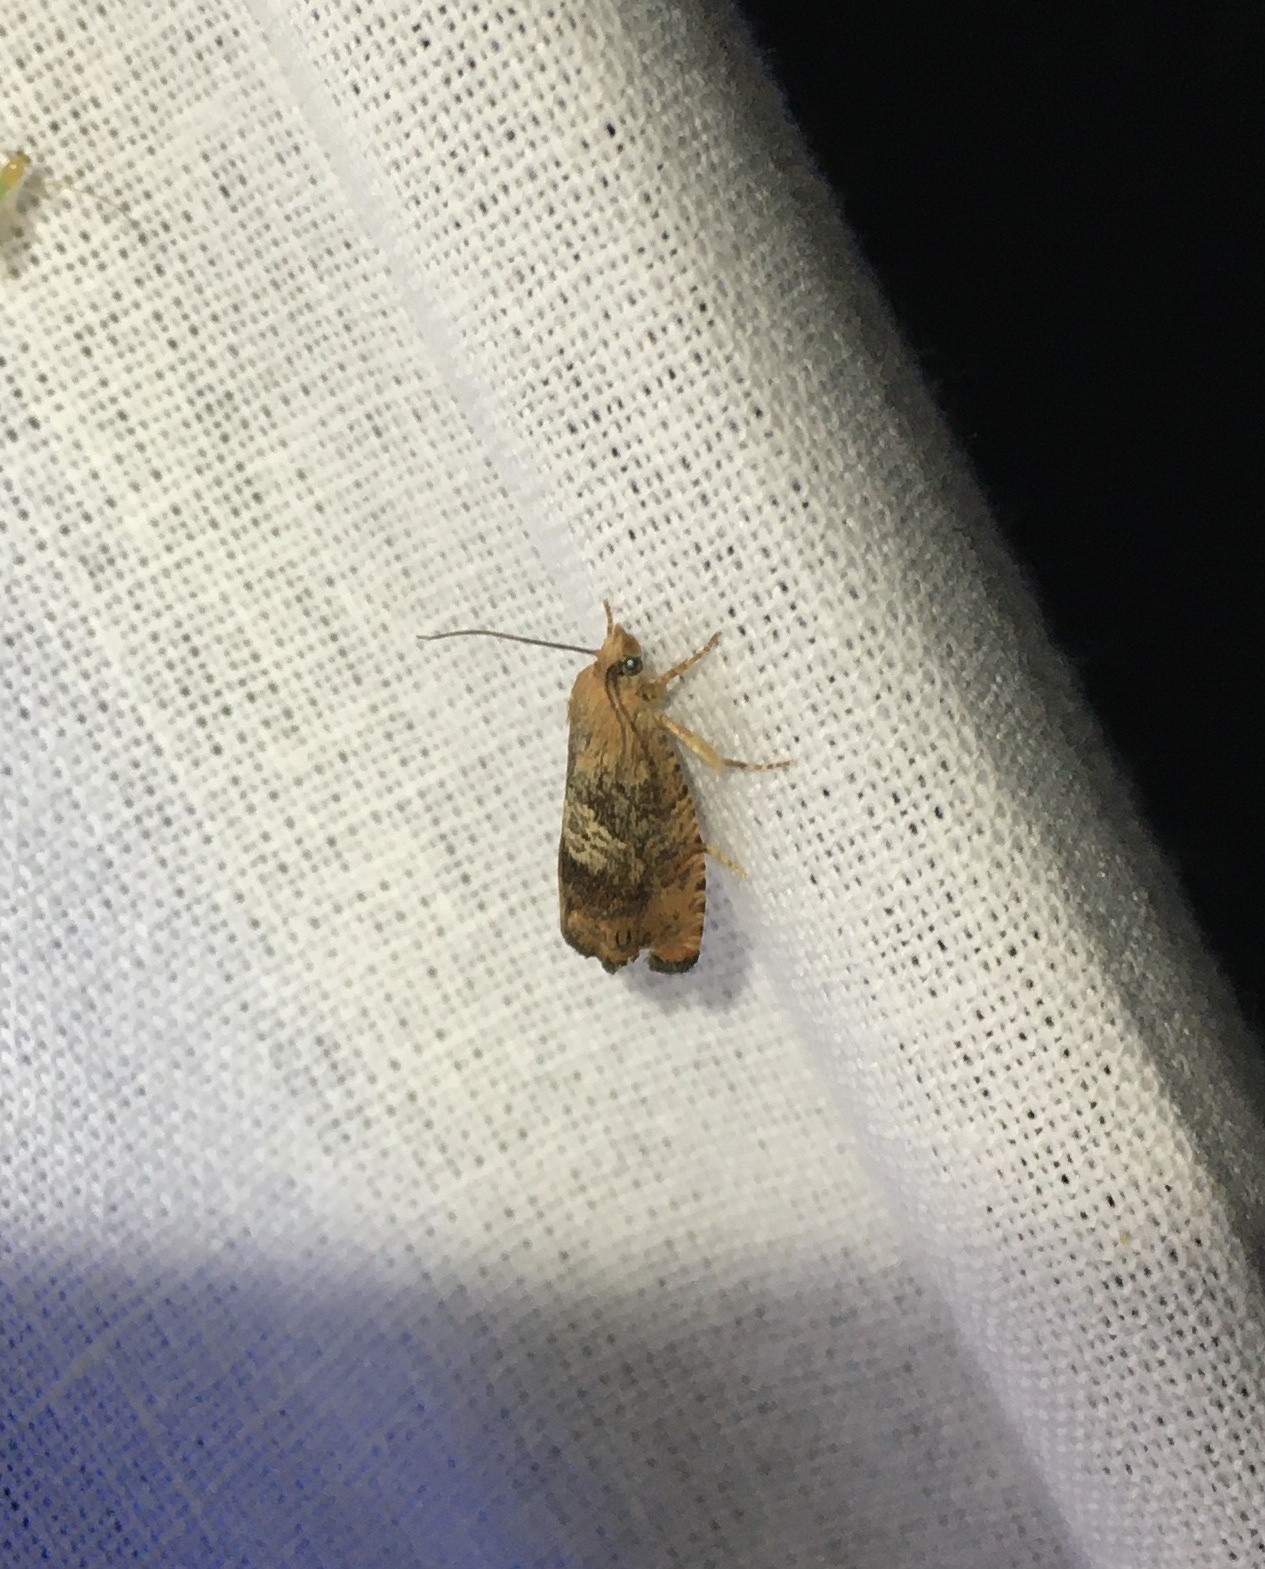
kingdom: Animalia
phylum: Arthropoda
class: Insecta
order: Lepidoptera
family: Tortricidae
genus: Cydia
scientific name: Cydia amplana
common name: Vagrant piercer
